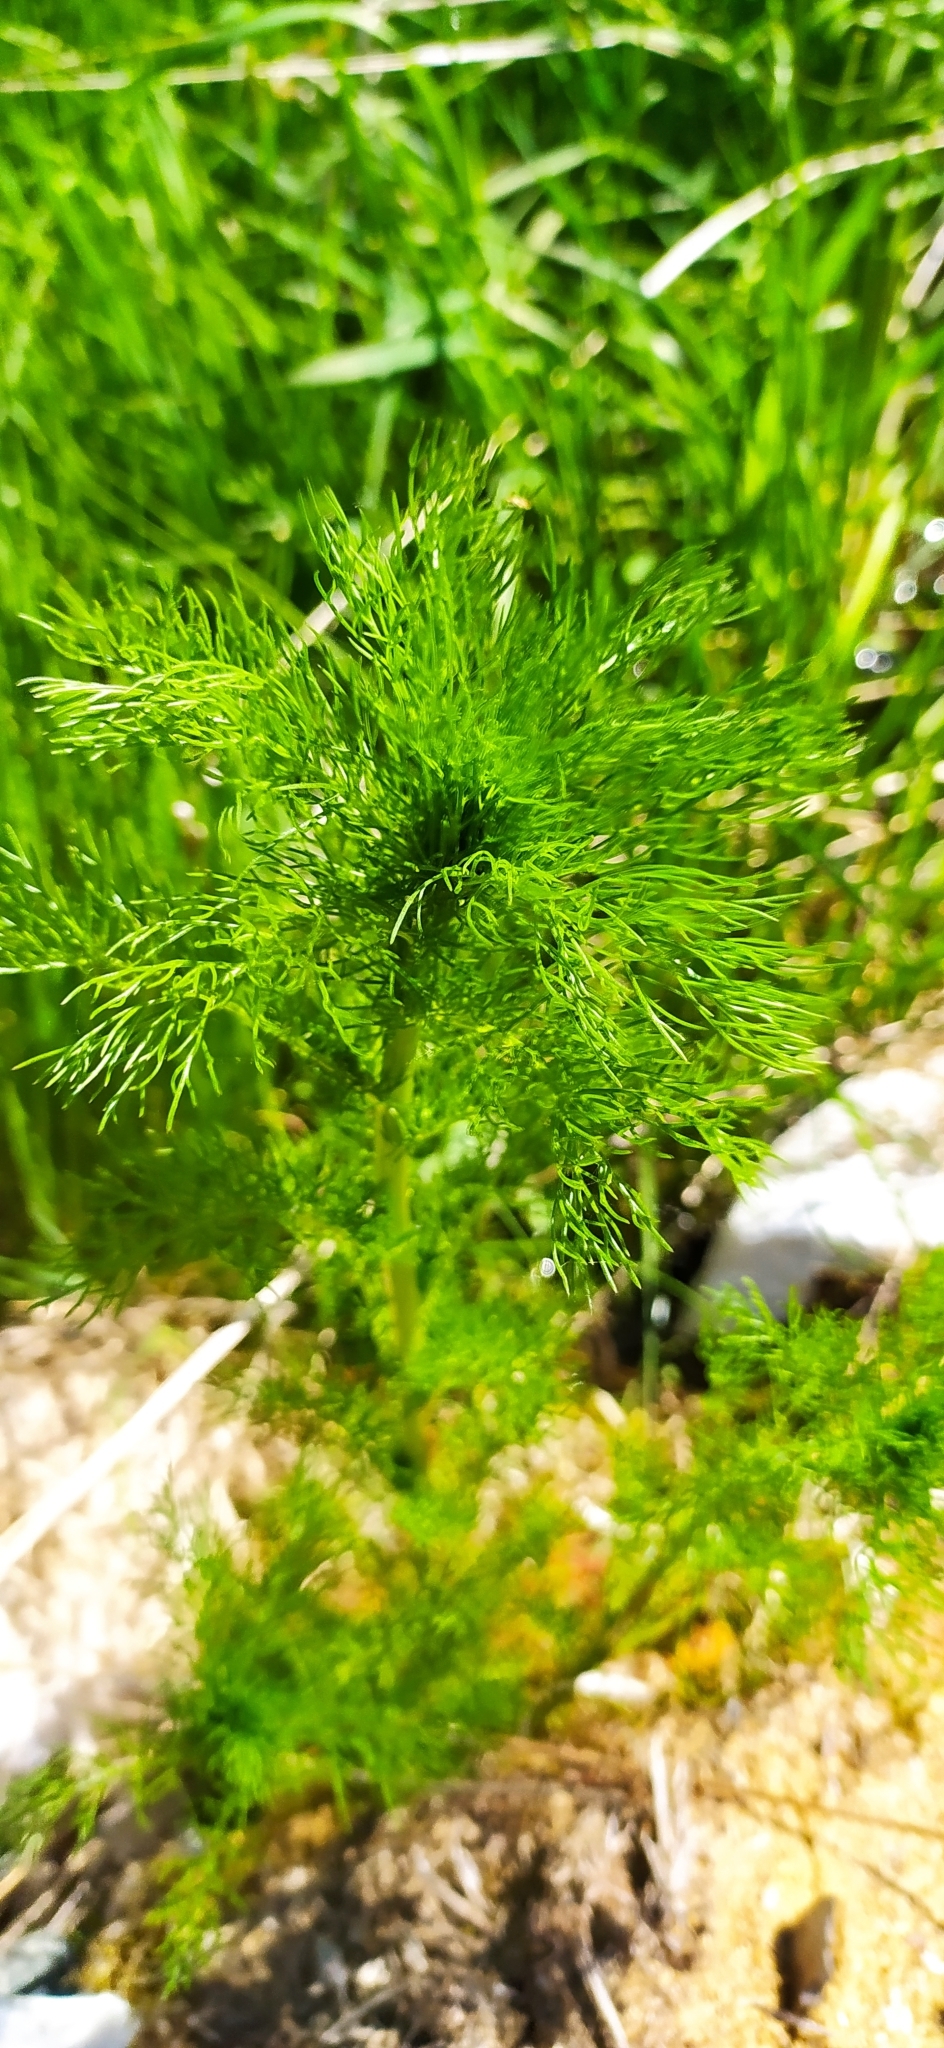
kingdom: Plantae
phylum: Tracheophyta
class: Magnoliopsida
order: Asterales
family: Asteraceae
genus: Tripleurospermum
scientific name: Tripleurospermum inodorum
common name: Scentless mayweed
